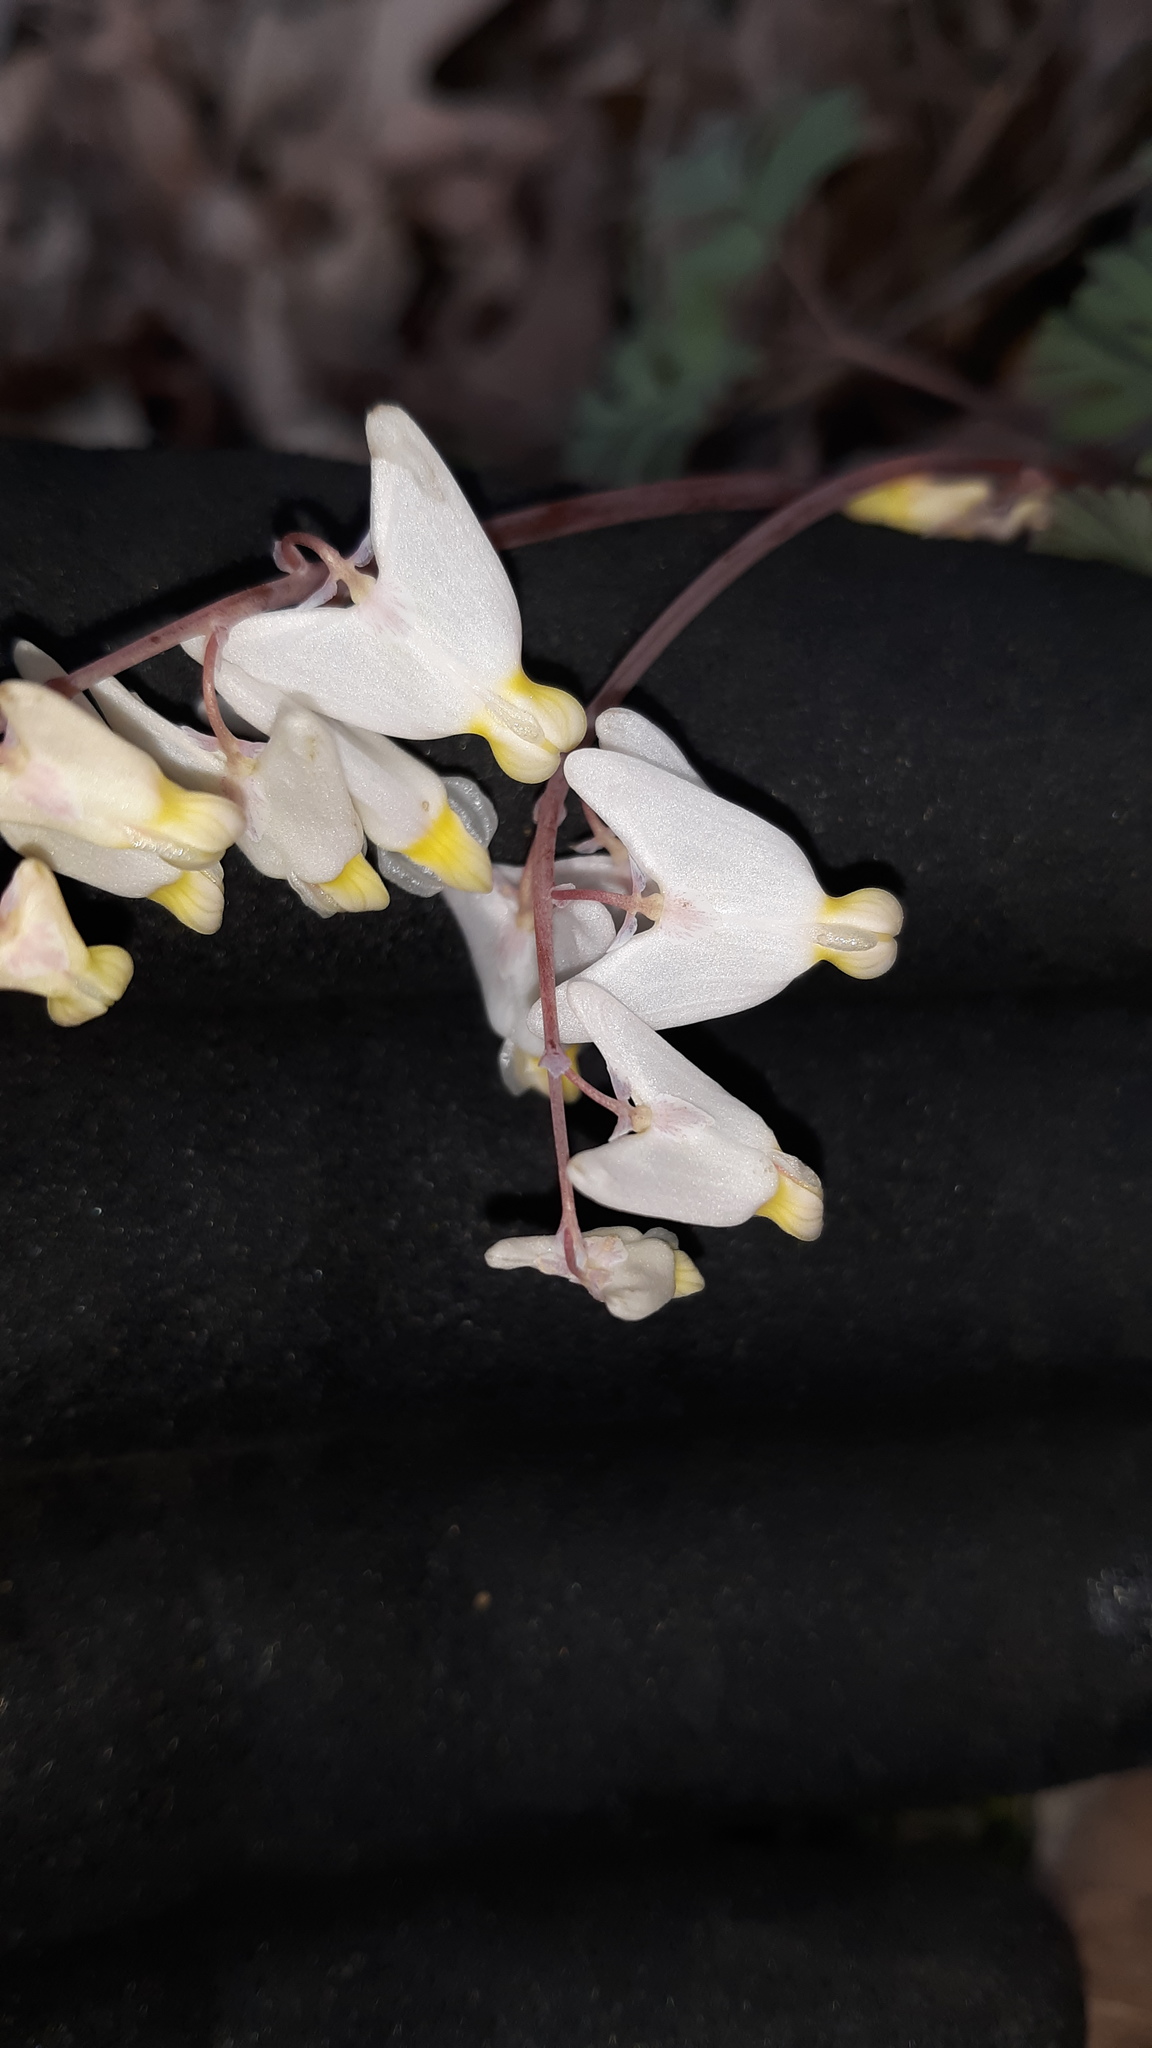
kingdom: Plantae
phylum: Tracheophyta
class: Magnoliopsida
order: Ranunculales
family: Papaveraceae
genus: Dicentra
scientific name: Dicentra cucullaria
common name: Dutchman's breeches
